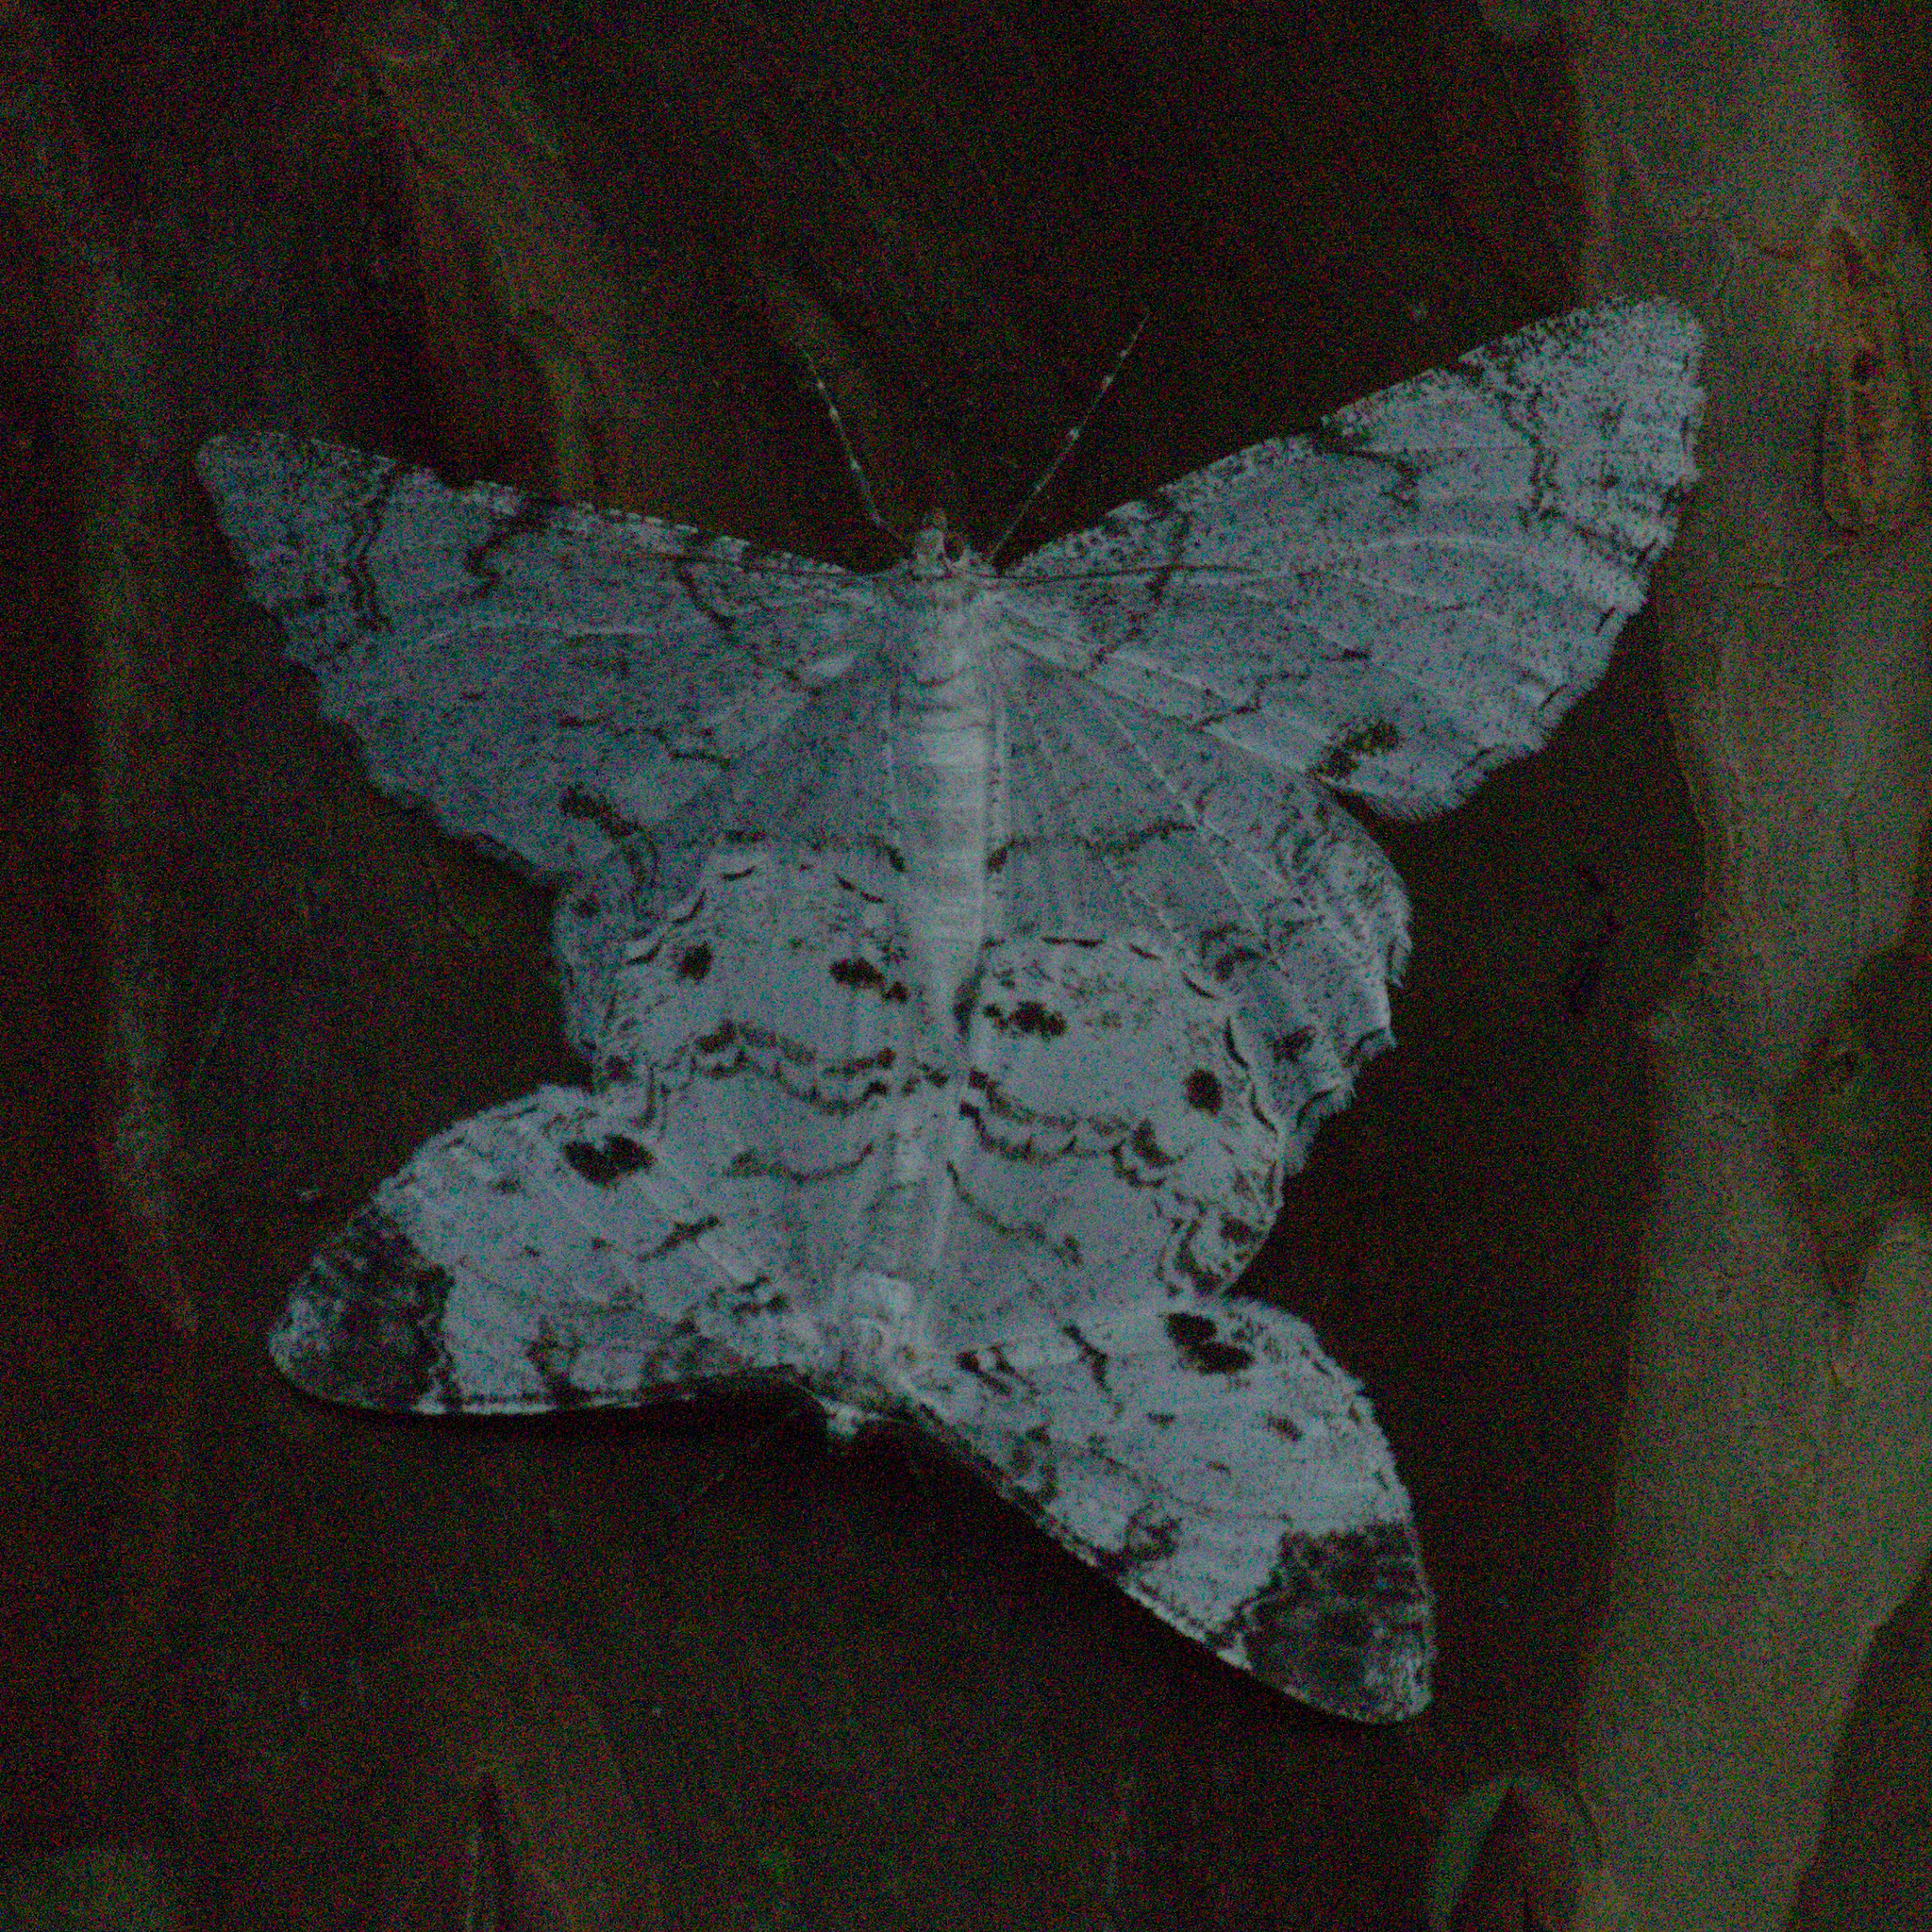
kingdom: Animalia
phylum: Arthropoda
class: Insecta
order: Lepidoptera
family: Geometridae
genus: Epimecis
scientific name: Epimecis puellaria
